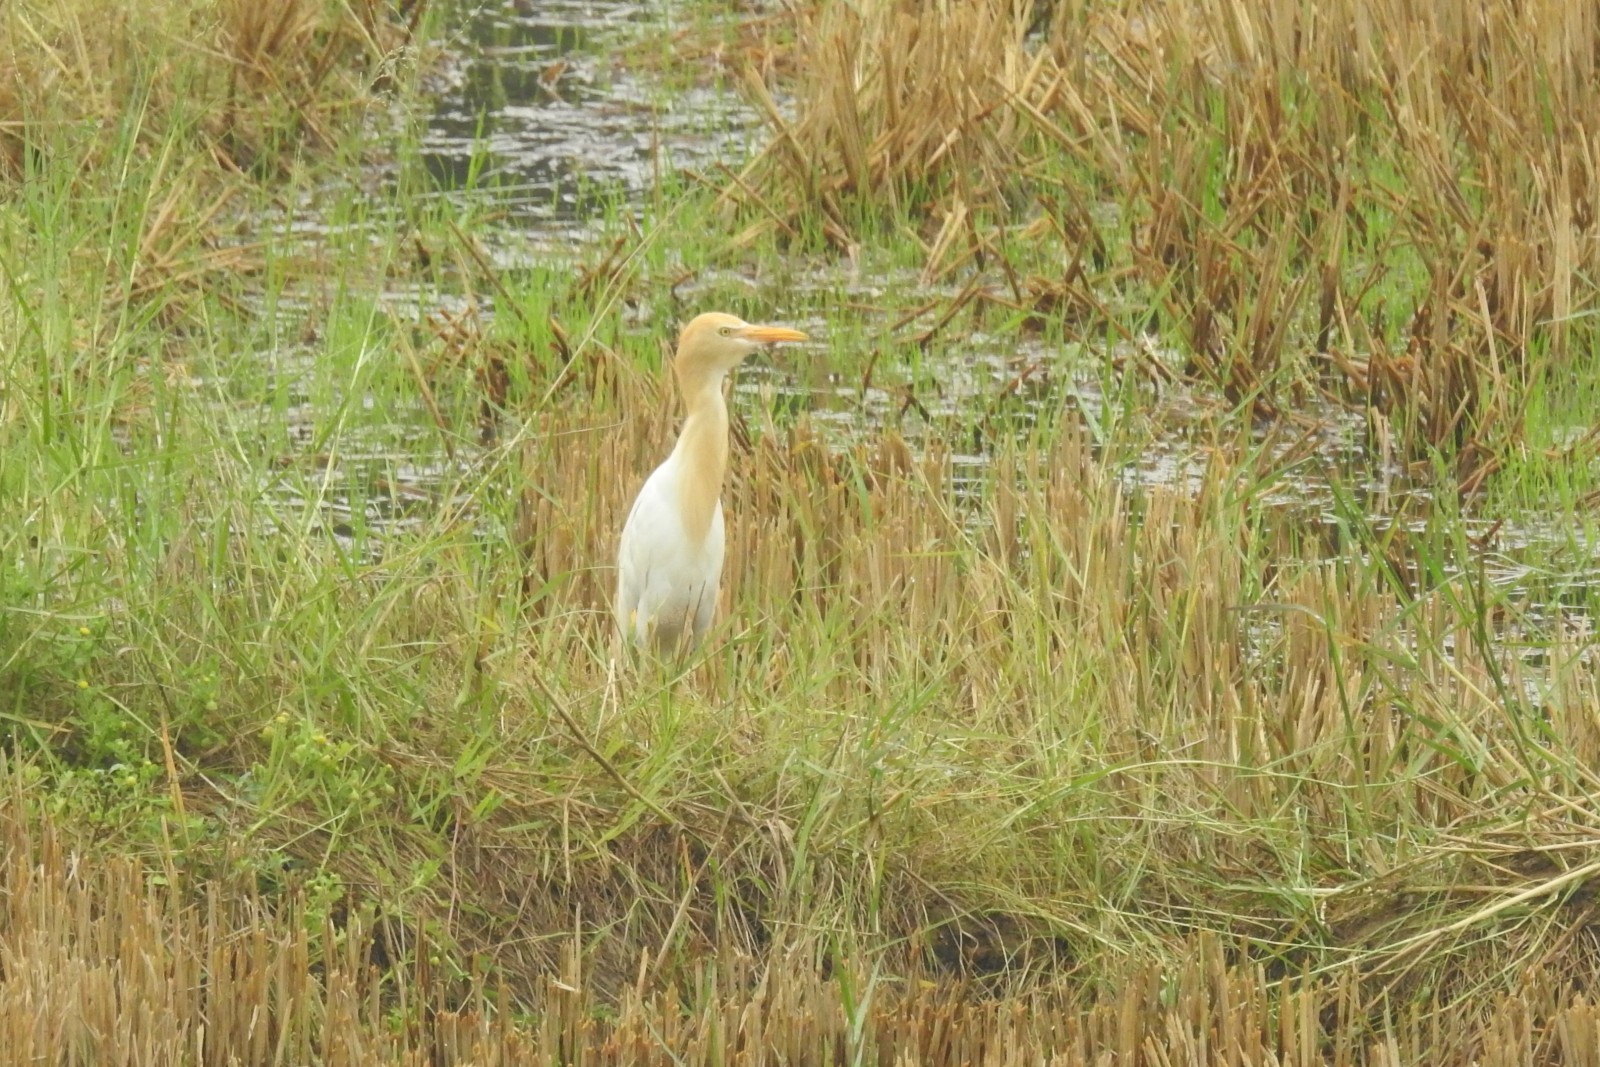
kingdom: Animalia
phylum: Chordata
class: Aves
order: Pelecaniformes
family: Ardeidae
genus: Bubulcus
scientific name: Bubulcus coromandus
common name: Eastern cattle egret
